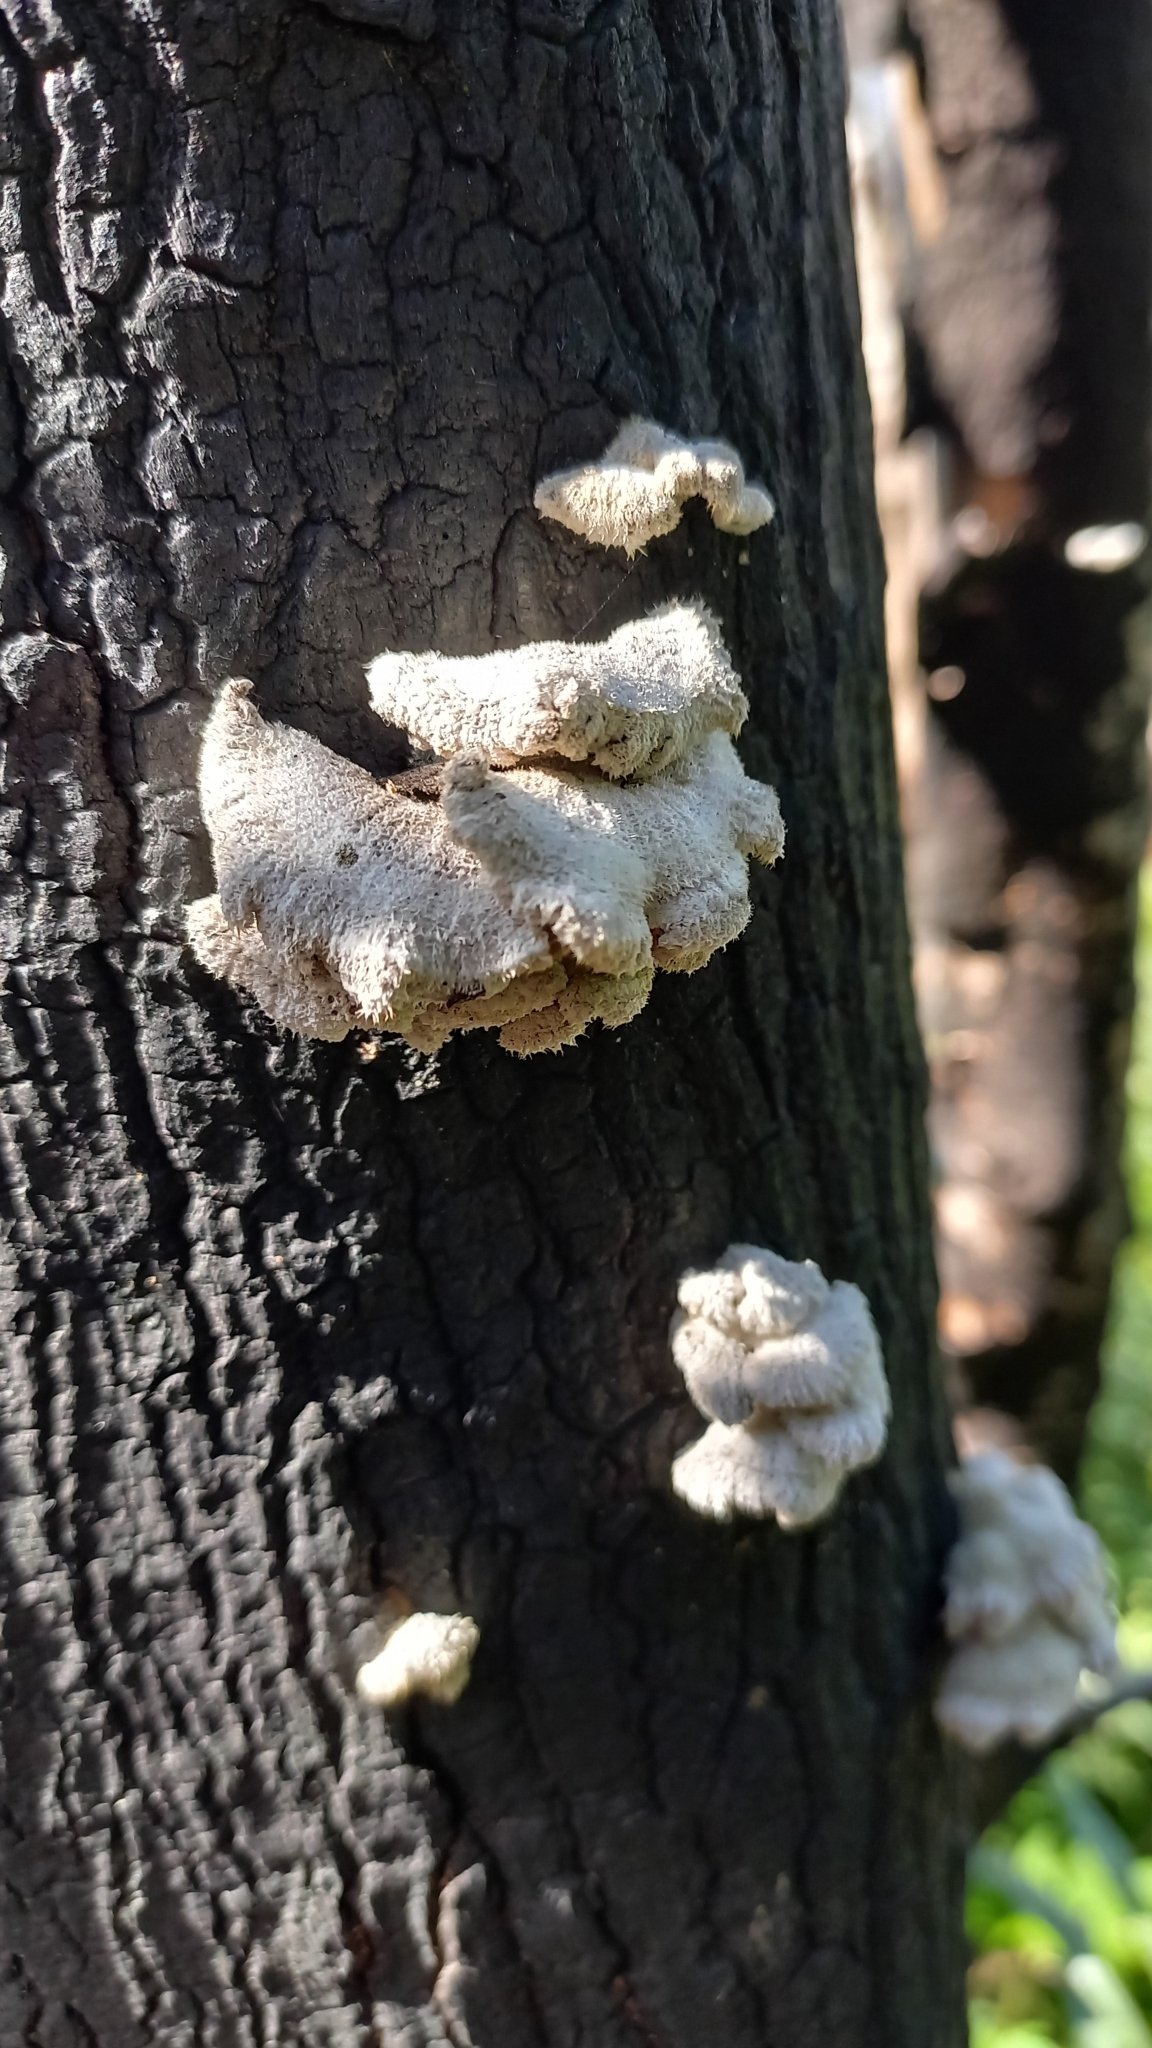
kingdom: Fungi
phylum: Basidiomycota
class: Agaricomycetes
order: Agaricales
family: Schizophyllaceae
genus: Schizophyllum
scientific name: Schizophyllum commune
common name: Common porecrust
